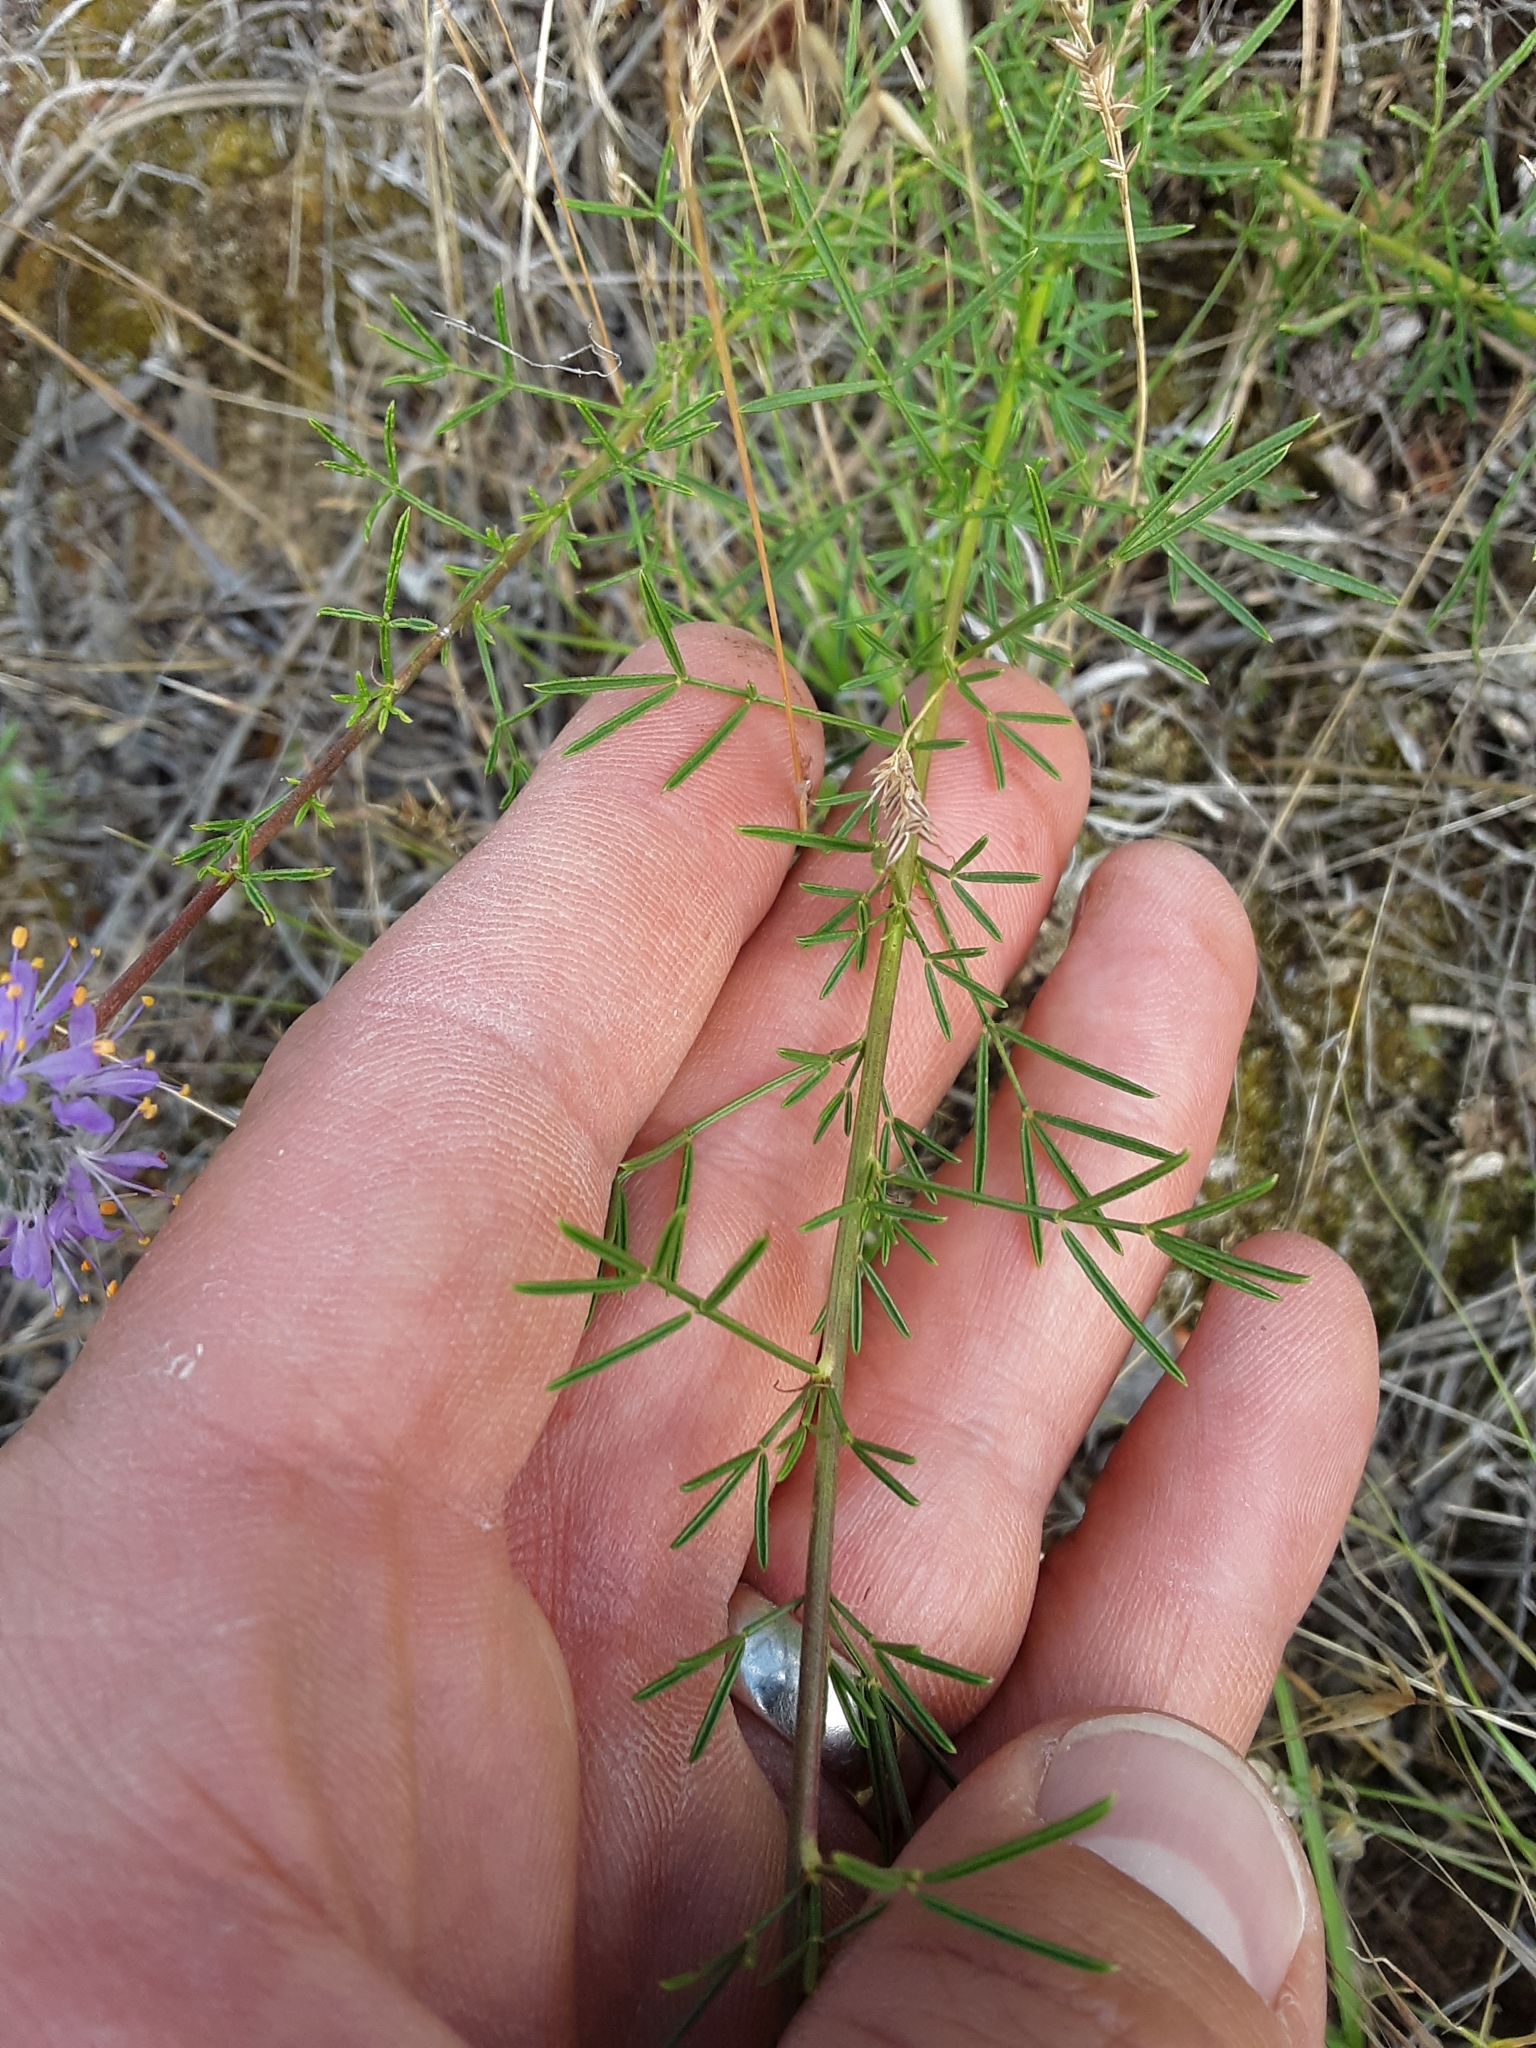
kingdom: Plantae
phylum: Tracheophyta
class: Magnoliopsida
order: Fabales
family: Fabaceae
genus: Dalea
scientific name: Dalea purpurea
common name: Purple prairie-clover
